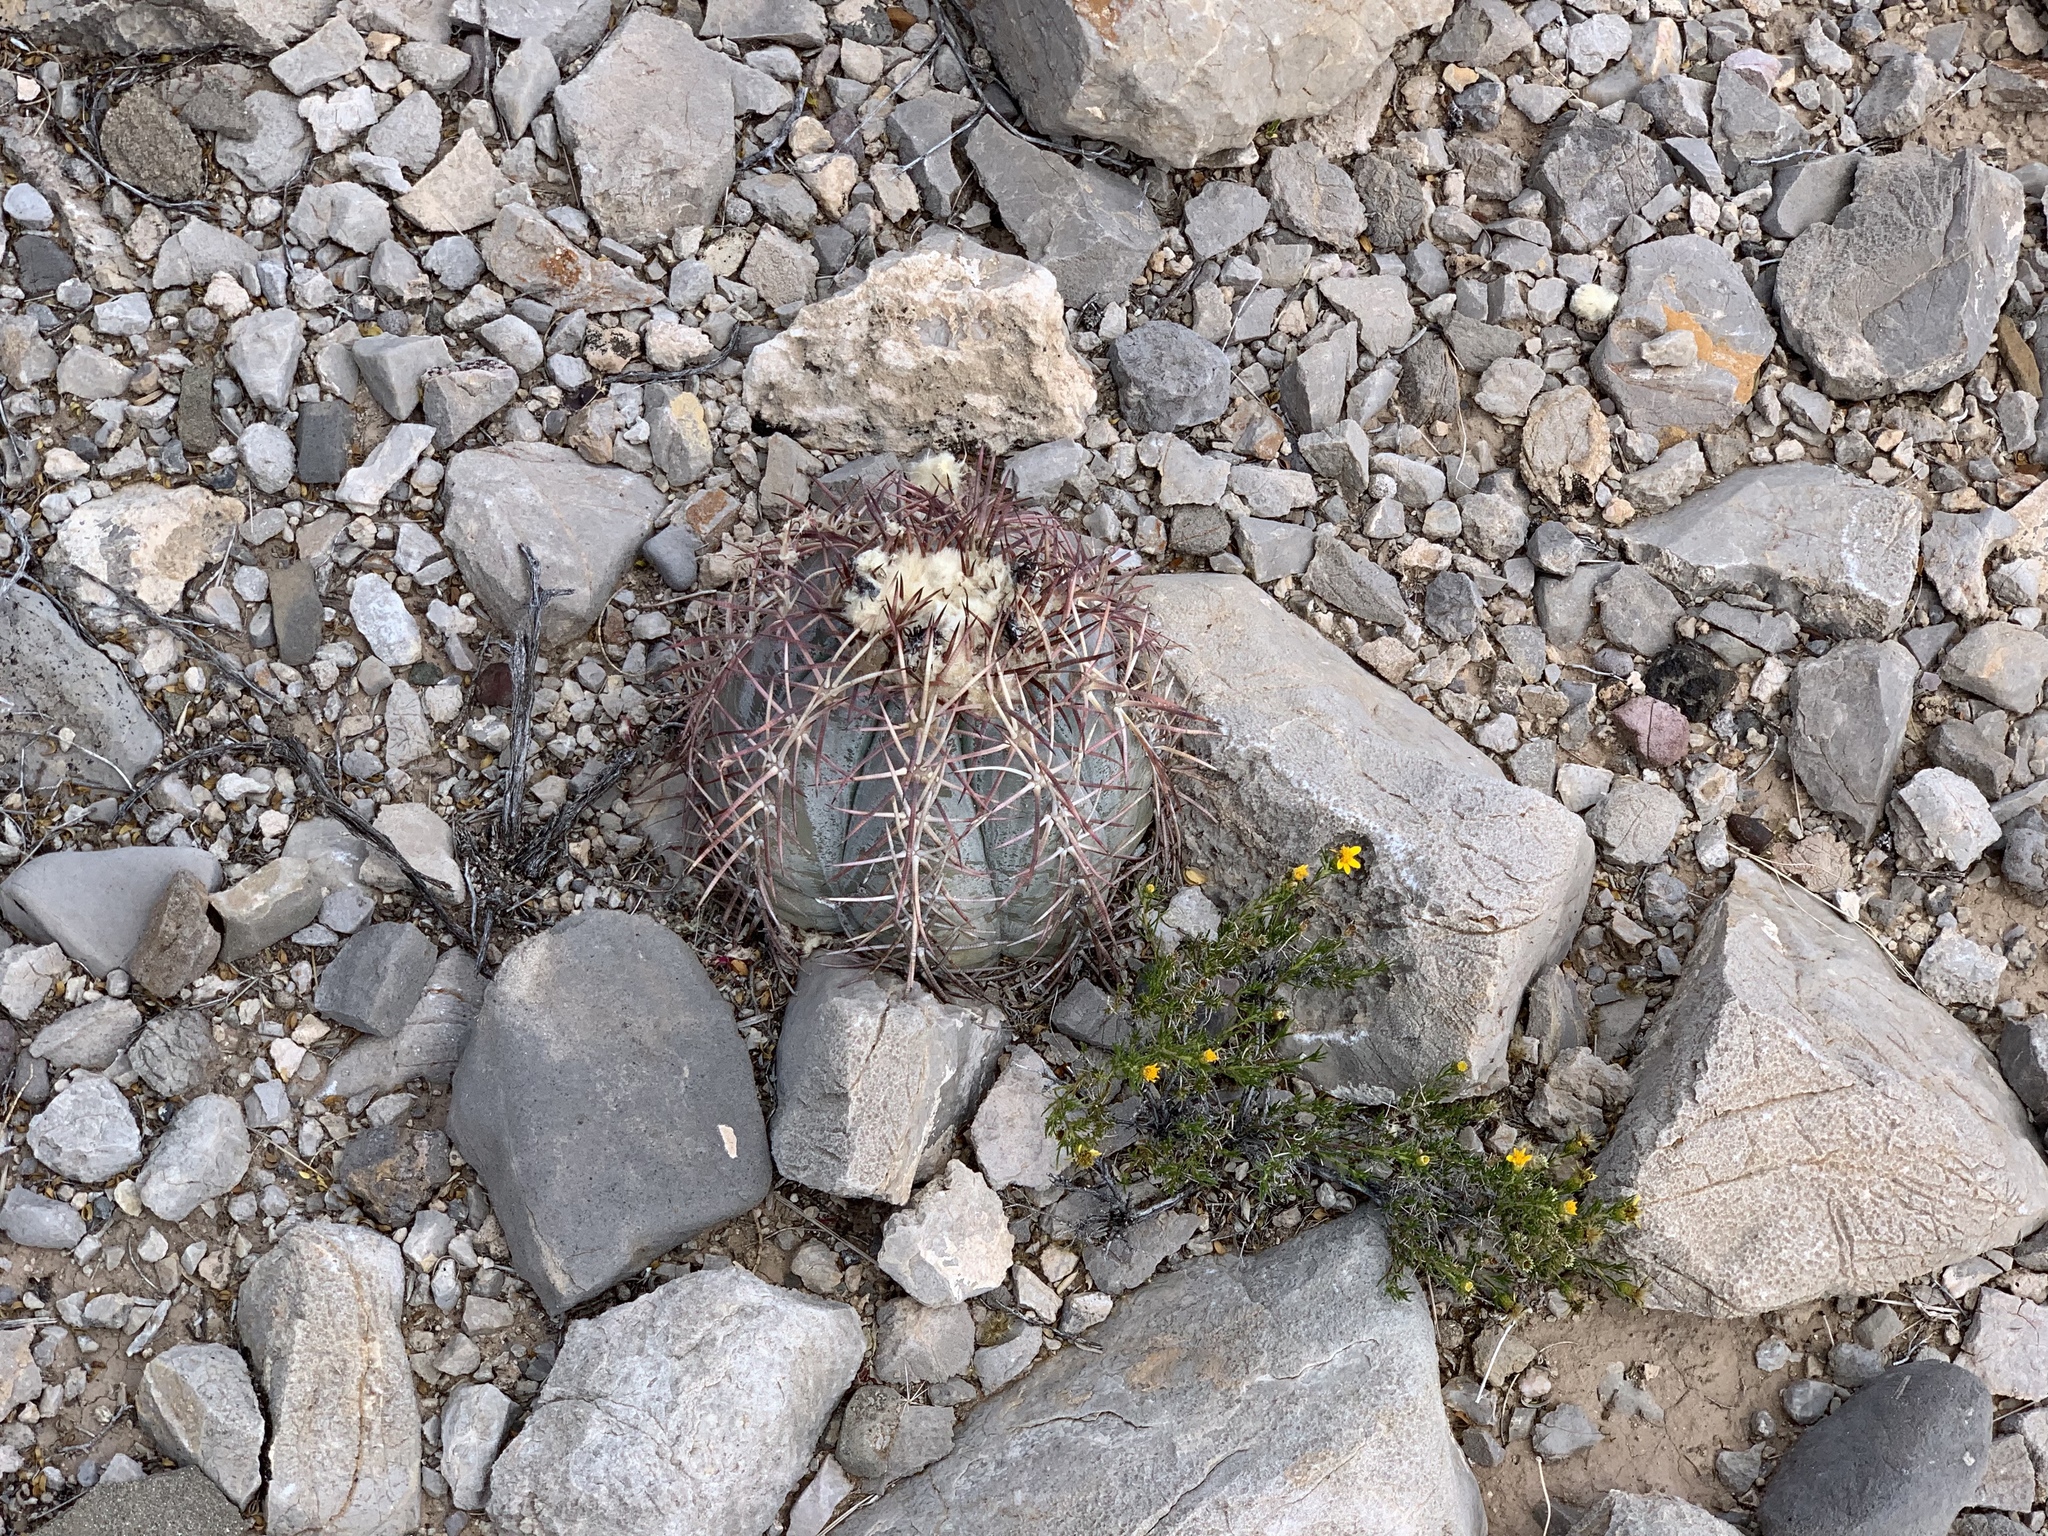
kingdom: Plantae
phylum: Tracheophyta
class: Magnoliopsida
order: Caryophyllales
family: Cactaceae
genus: Echinocactus
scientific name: Echinocactus horizonthalonius
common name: Devilshead
